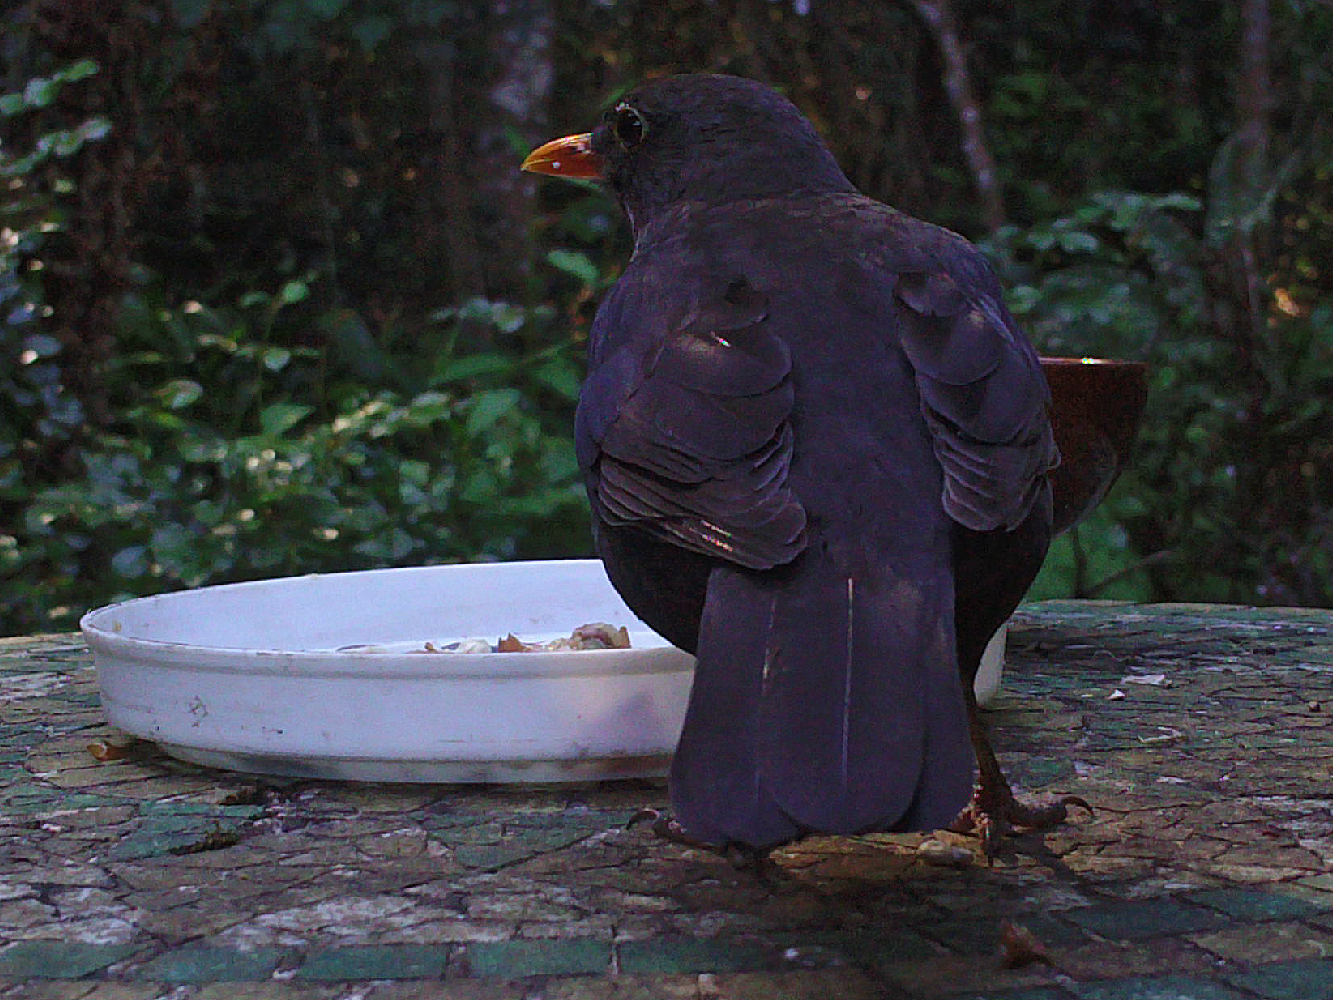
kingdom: Animalia
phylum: Chordata
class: Aves
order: Passeriformes
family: Turdidae
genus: Turdus
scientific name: Turdus merula
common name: Common blackbird
